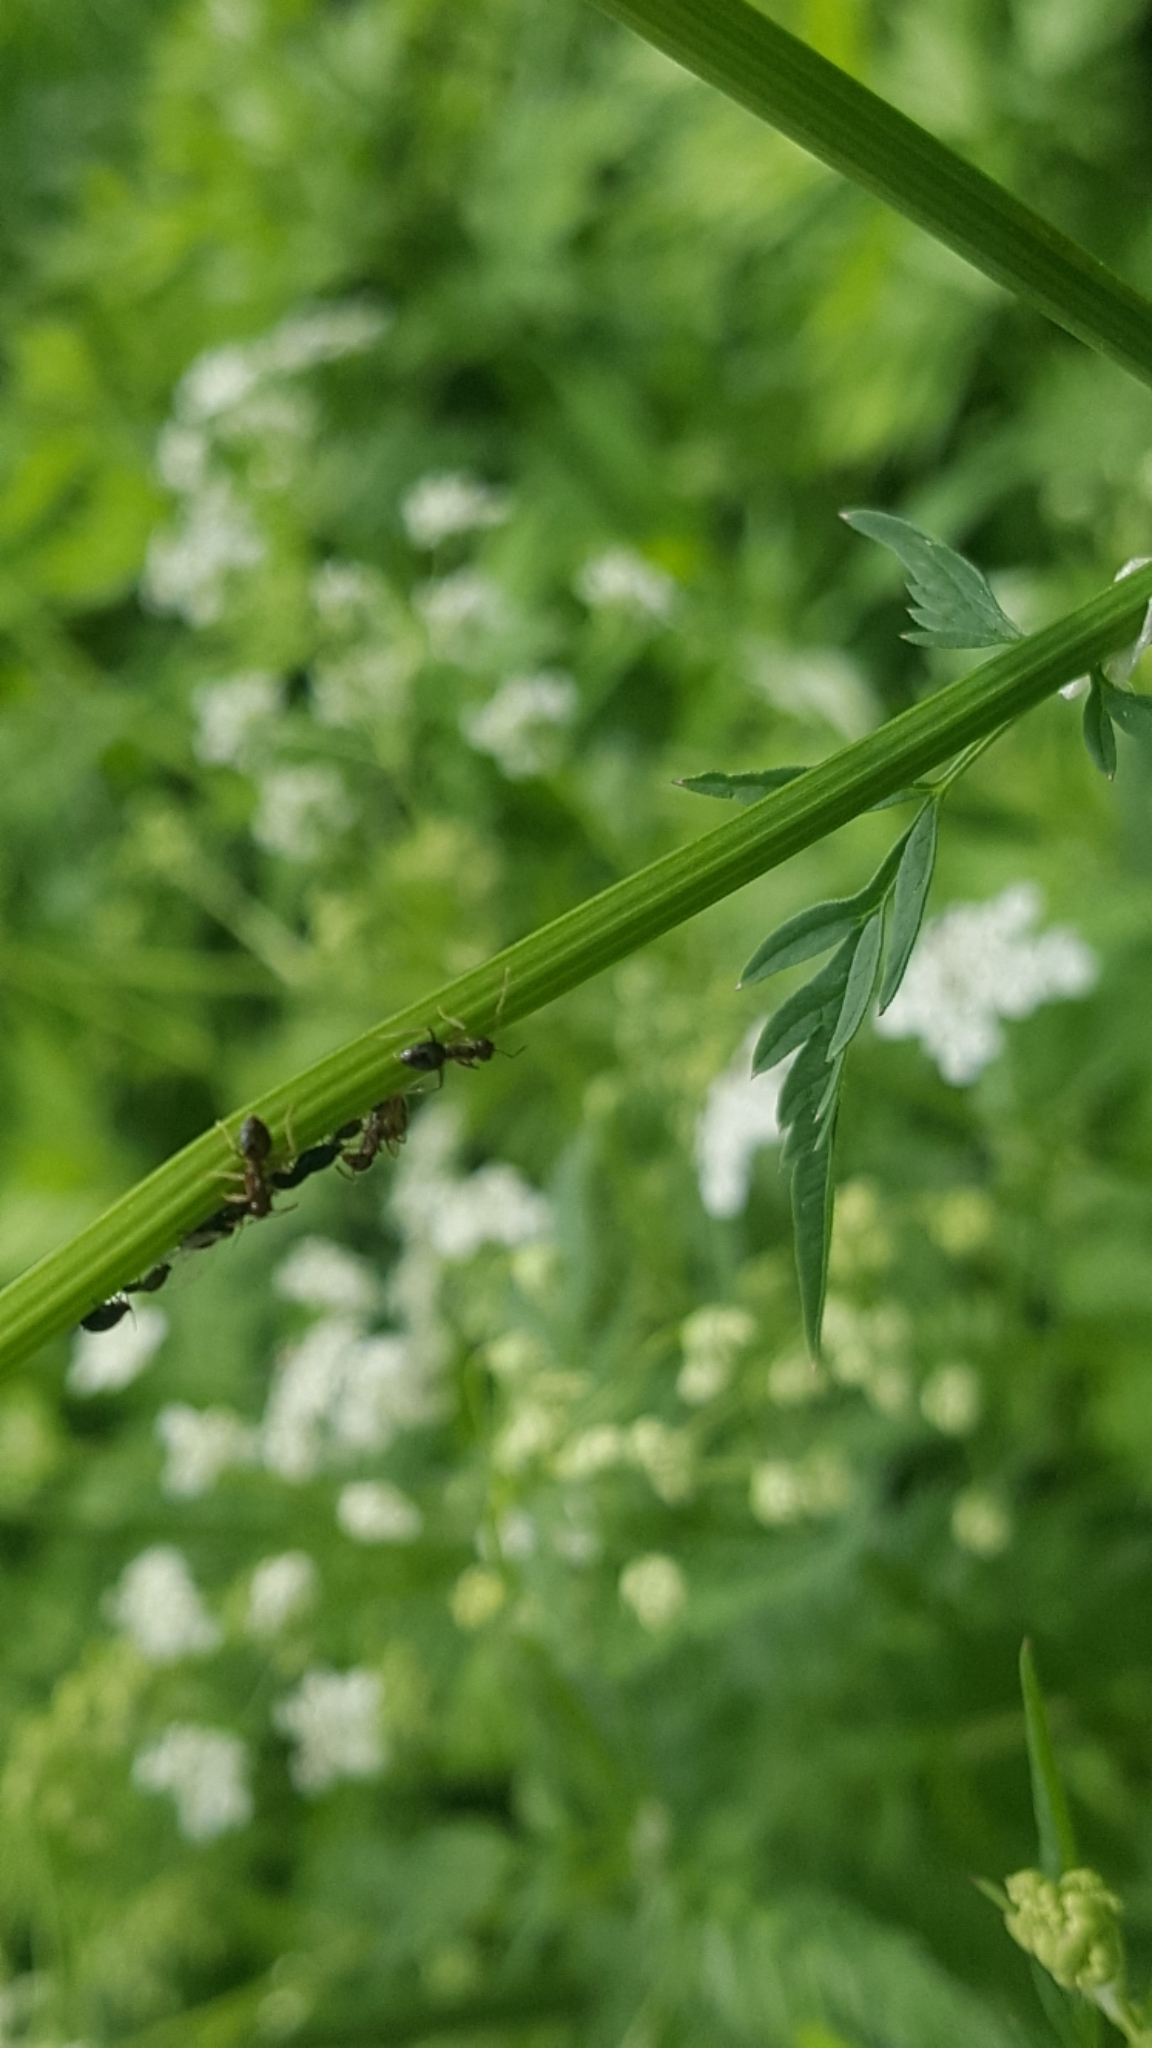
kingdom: Animalia
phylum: Arthropoda
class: Insecta
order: Hymenoptera
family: Formicidae
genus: Prenolepis
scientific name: Prenolepis imparis
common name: Small honey ant
